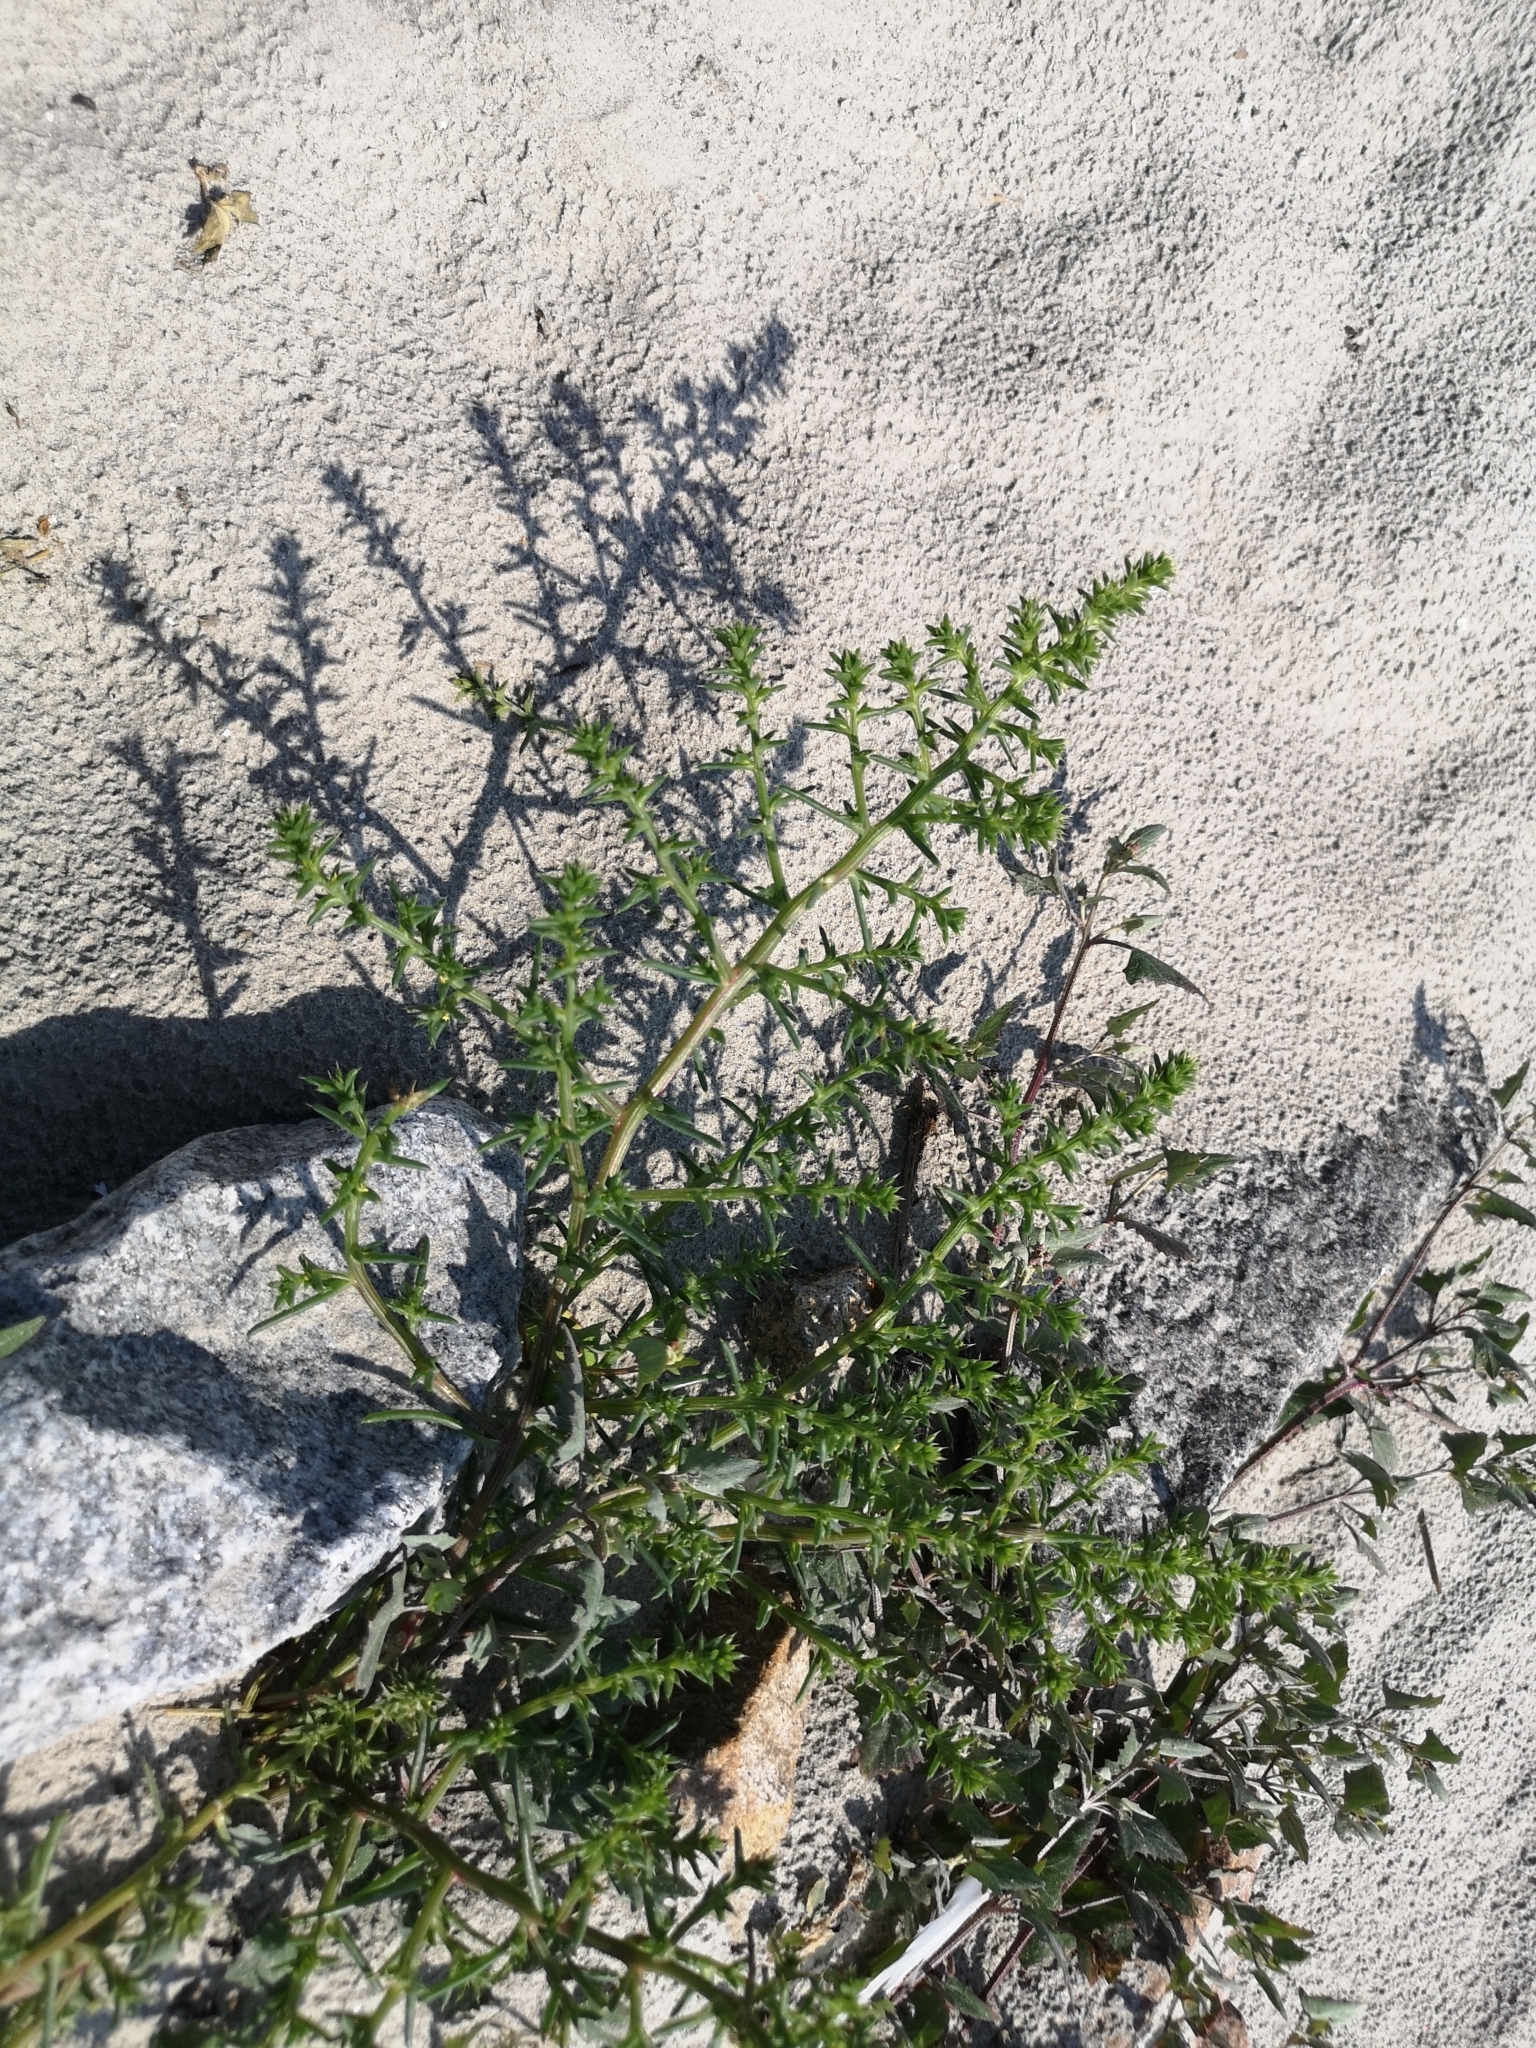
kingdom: Plantae
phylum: Tracheophyta
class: Magnoliopsida
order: Caryophyllales
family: Amaranthaceae
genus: Salsola
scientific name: Salsola kali
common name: Saltwort
